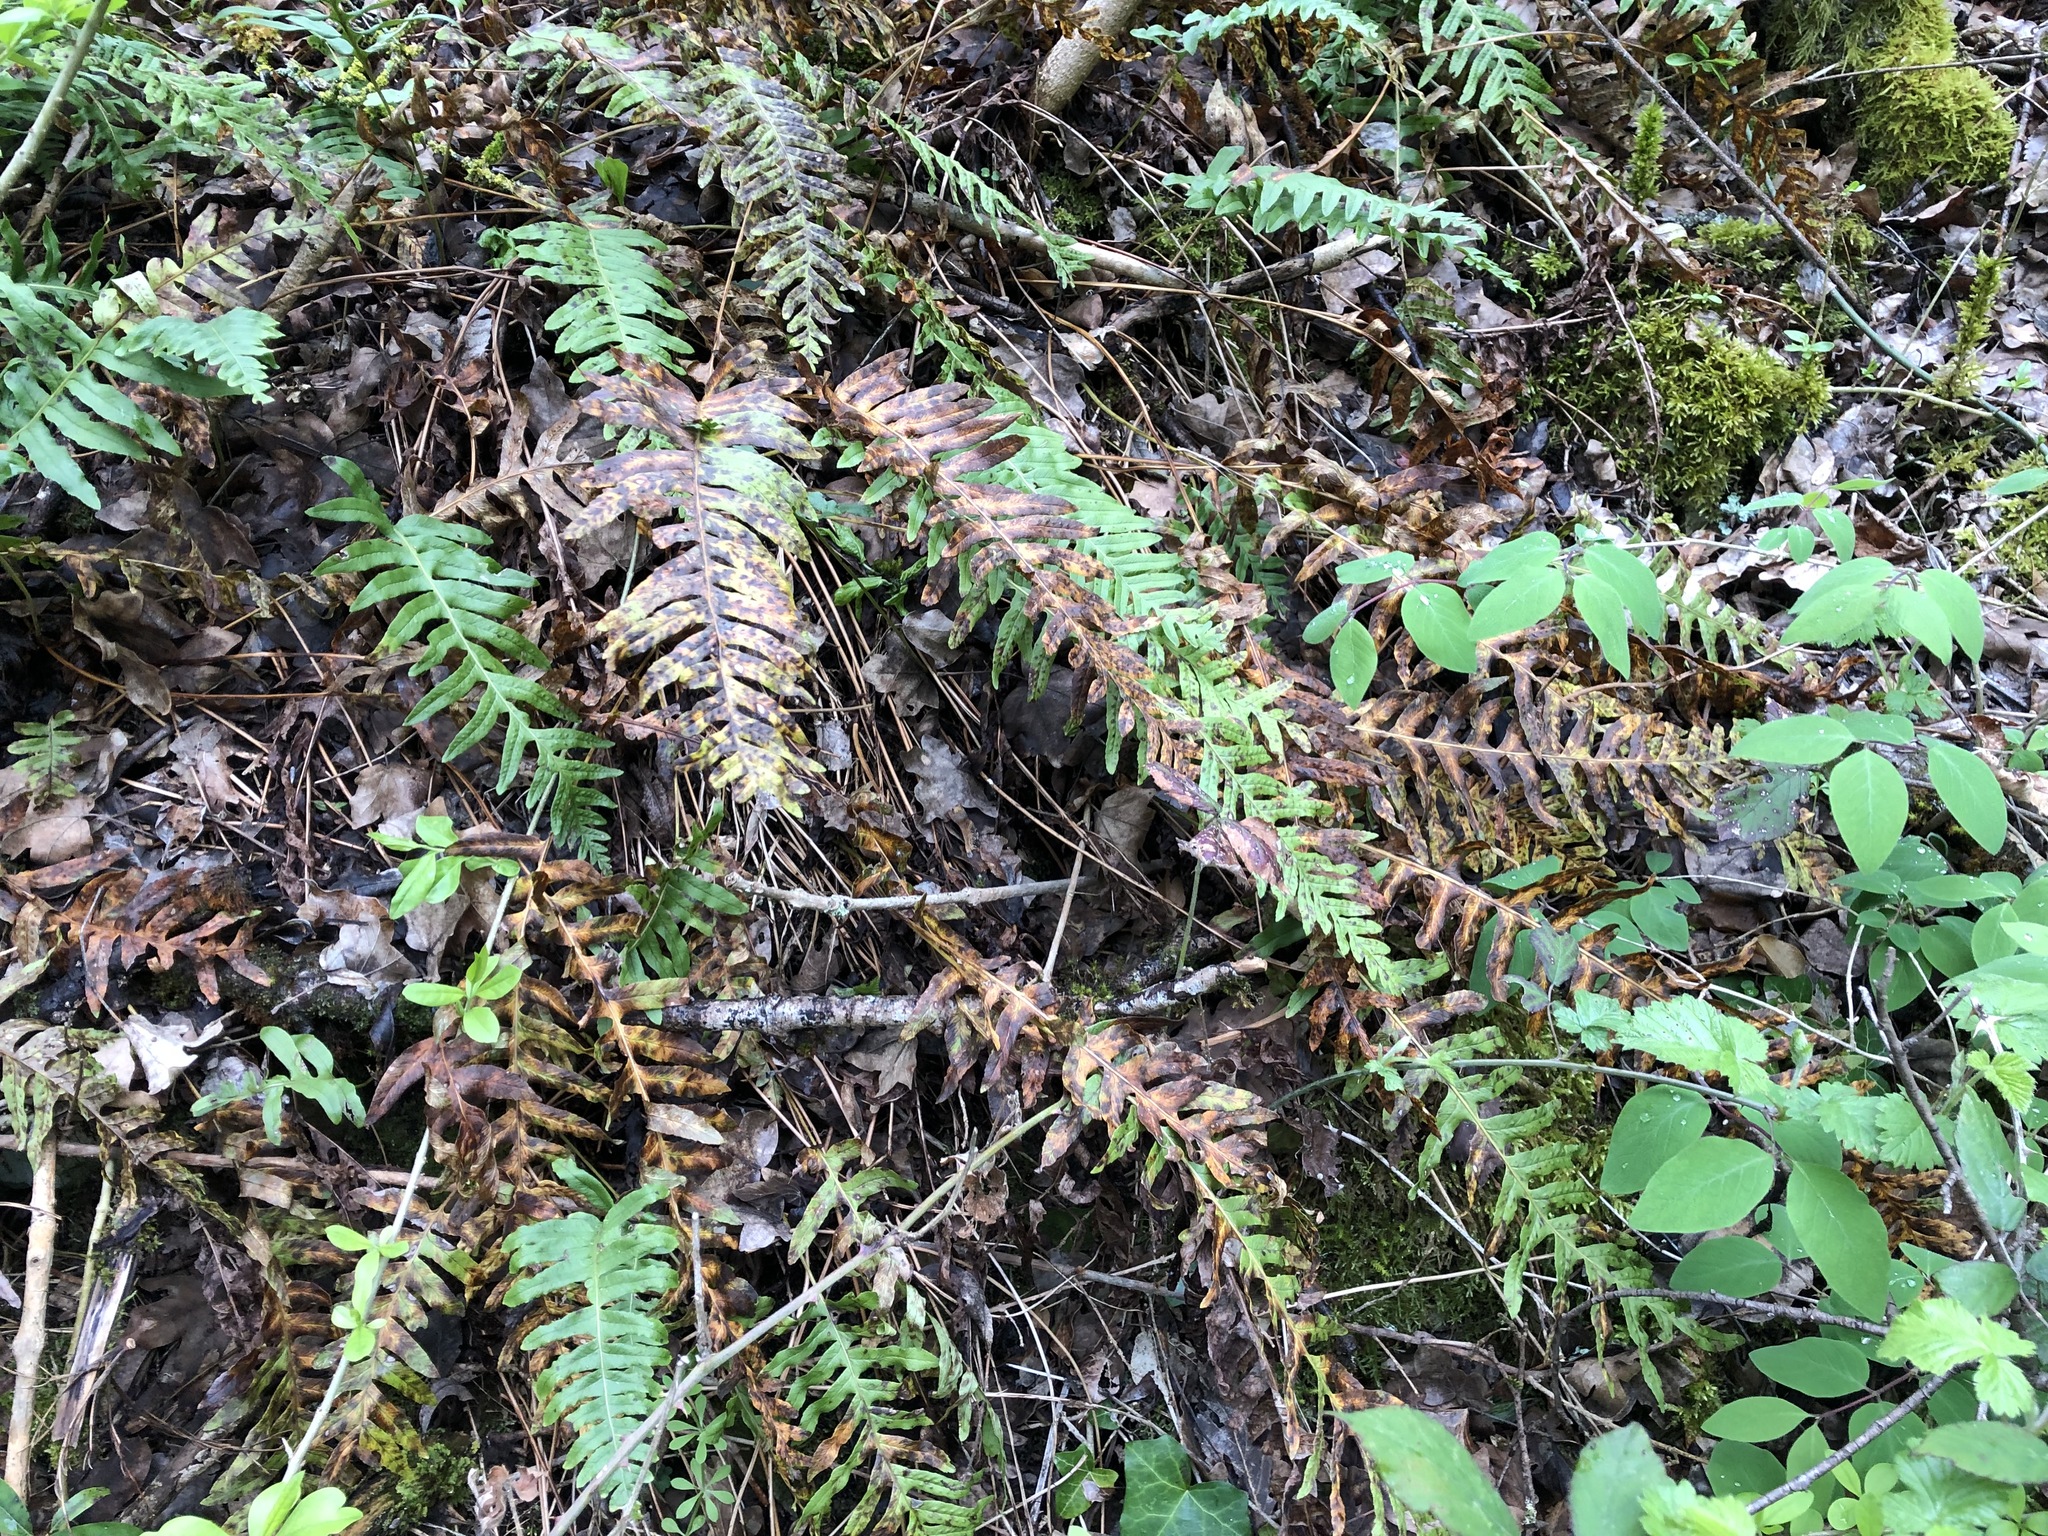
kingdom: Plantae
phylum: Tracheophyta
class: Polypodiopsida
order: Polypodiales
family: Polypodiaceae
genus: Polypodium
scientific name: Polypodium vulgare
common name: Common polypody
